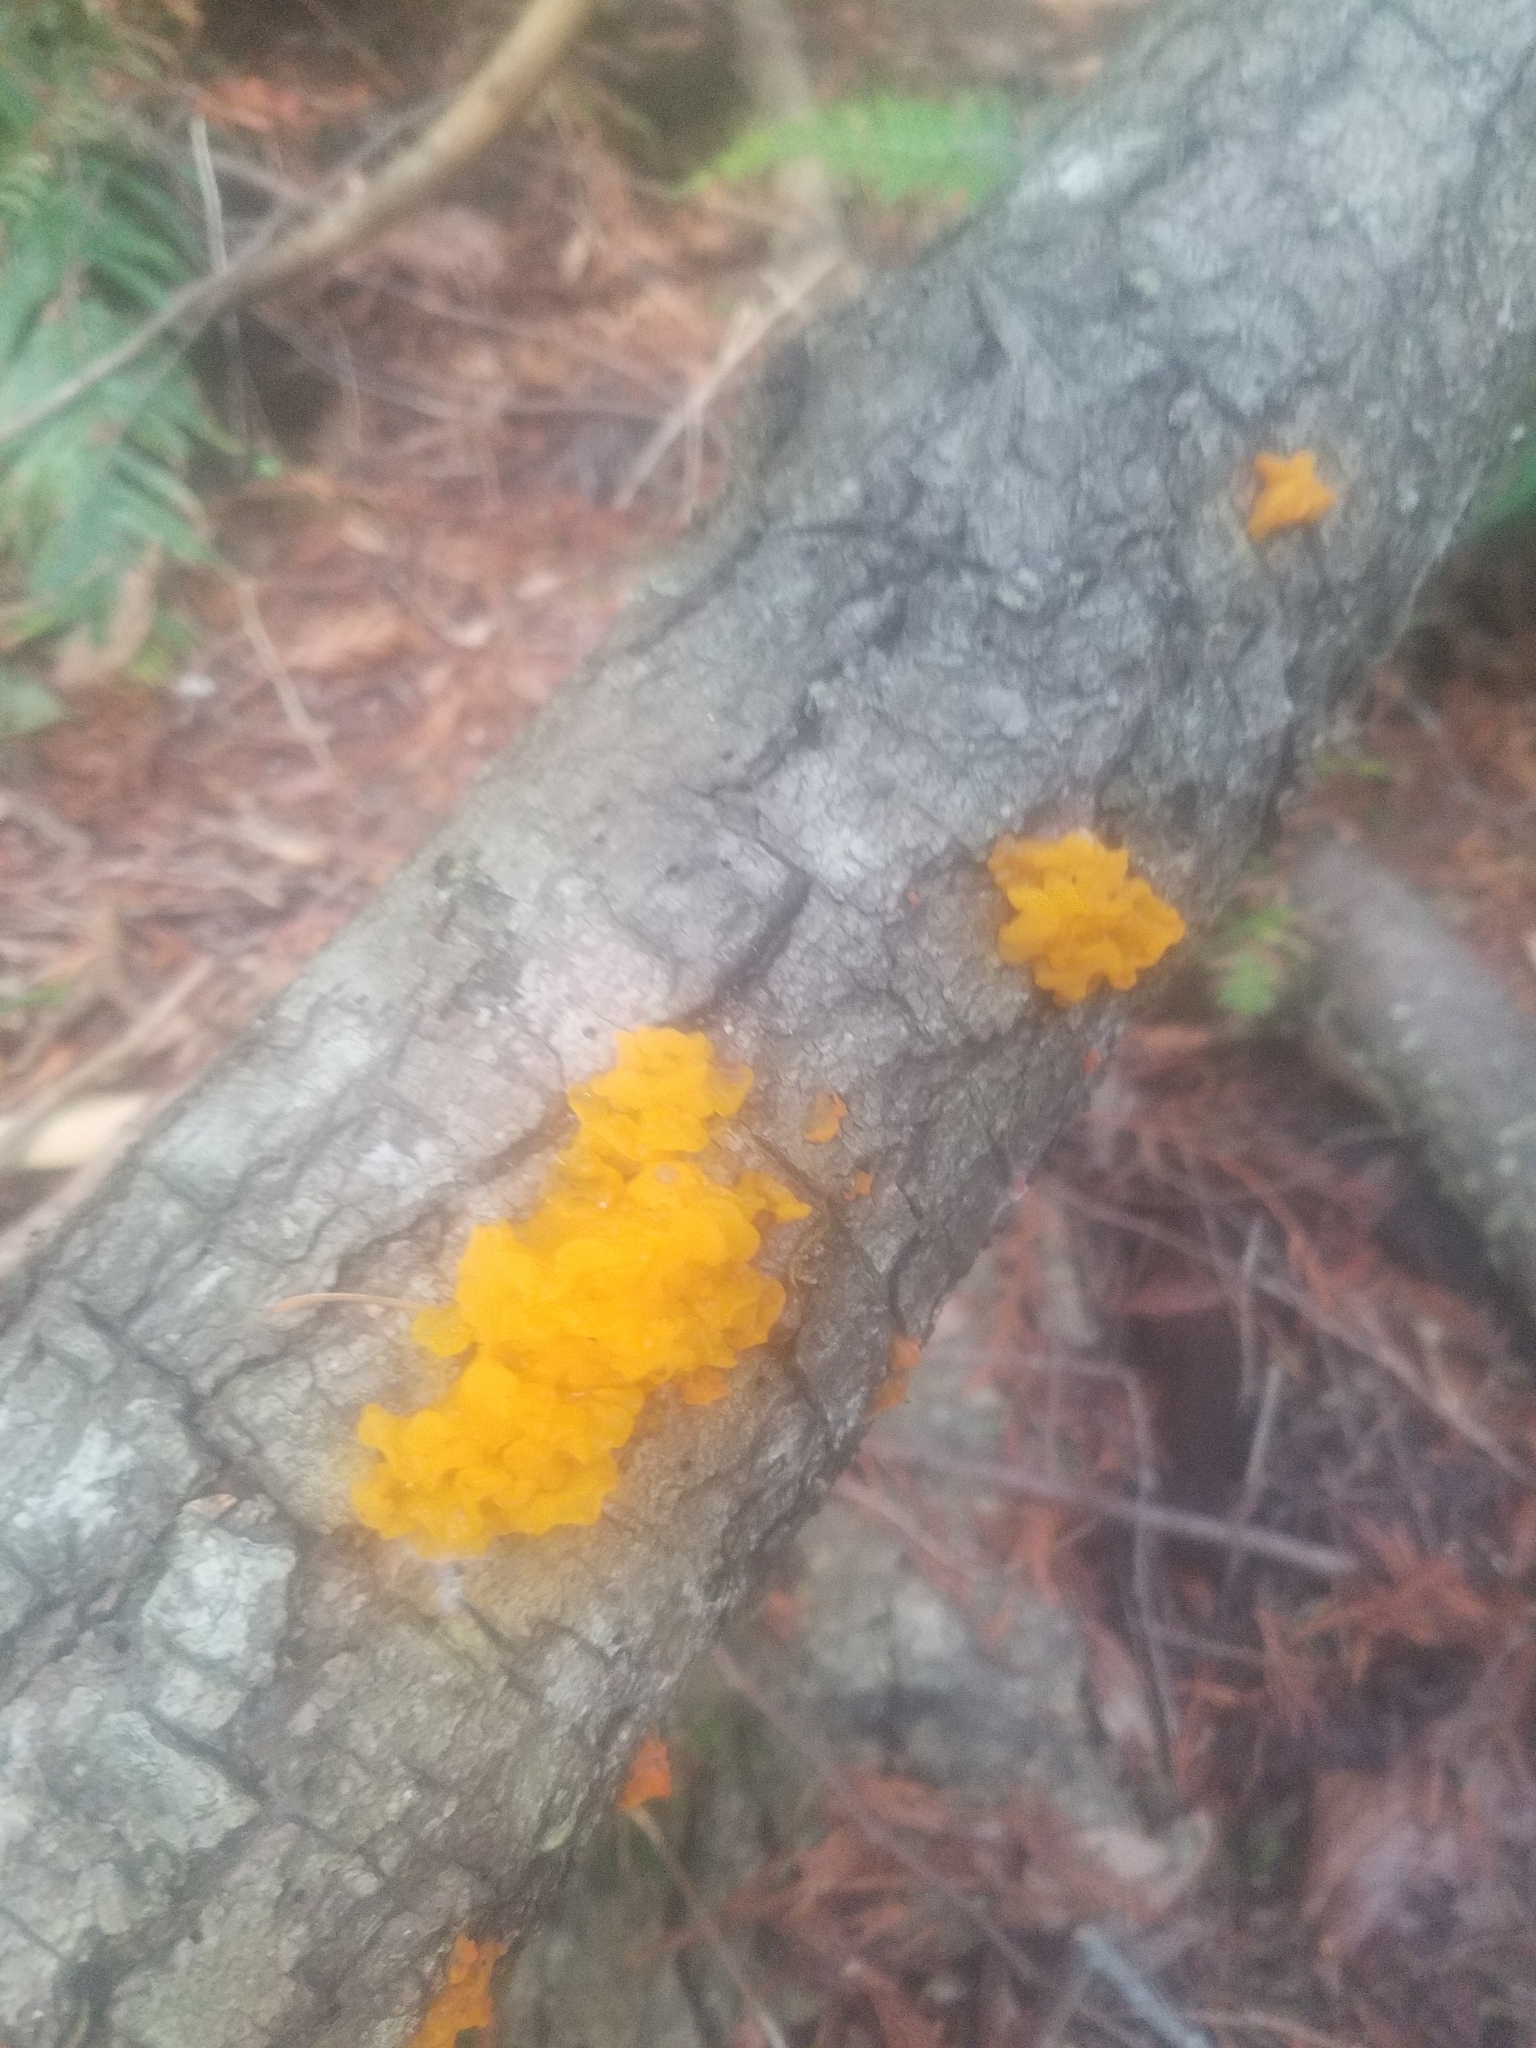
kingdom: Fungi
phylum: Basidiomycota
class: Tremellomycetes
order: Tremellales
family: Tremellaceae
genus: Tremella
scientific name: Tremella mesenterica
